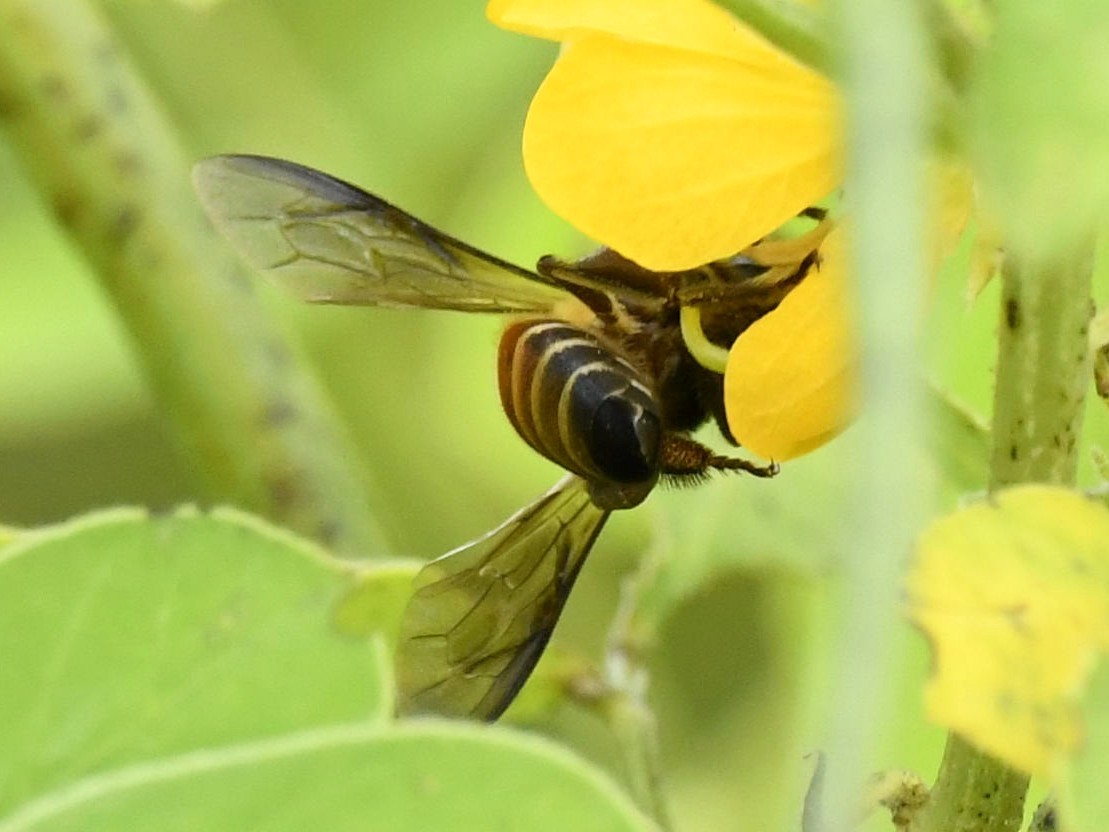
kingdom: Animalia
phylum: Arthropoda
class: Insecta
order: Hymenoptera
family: Apidae
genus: Apis
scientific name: Apis dorsata
